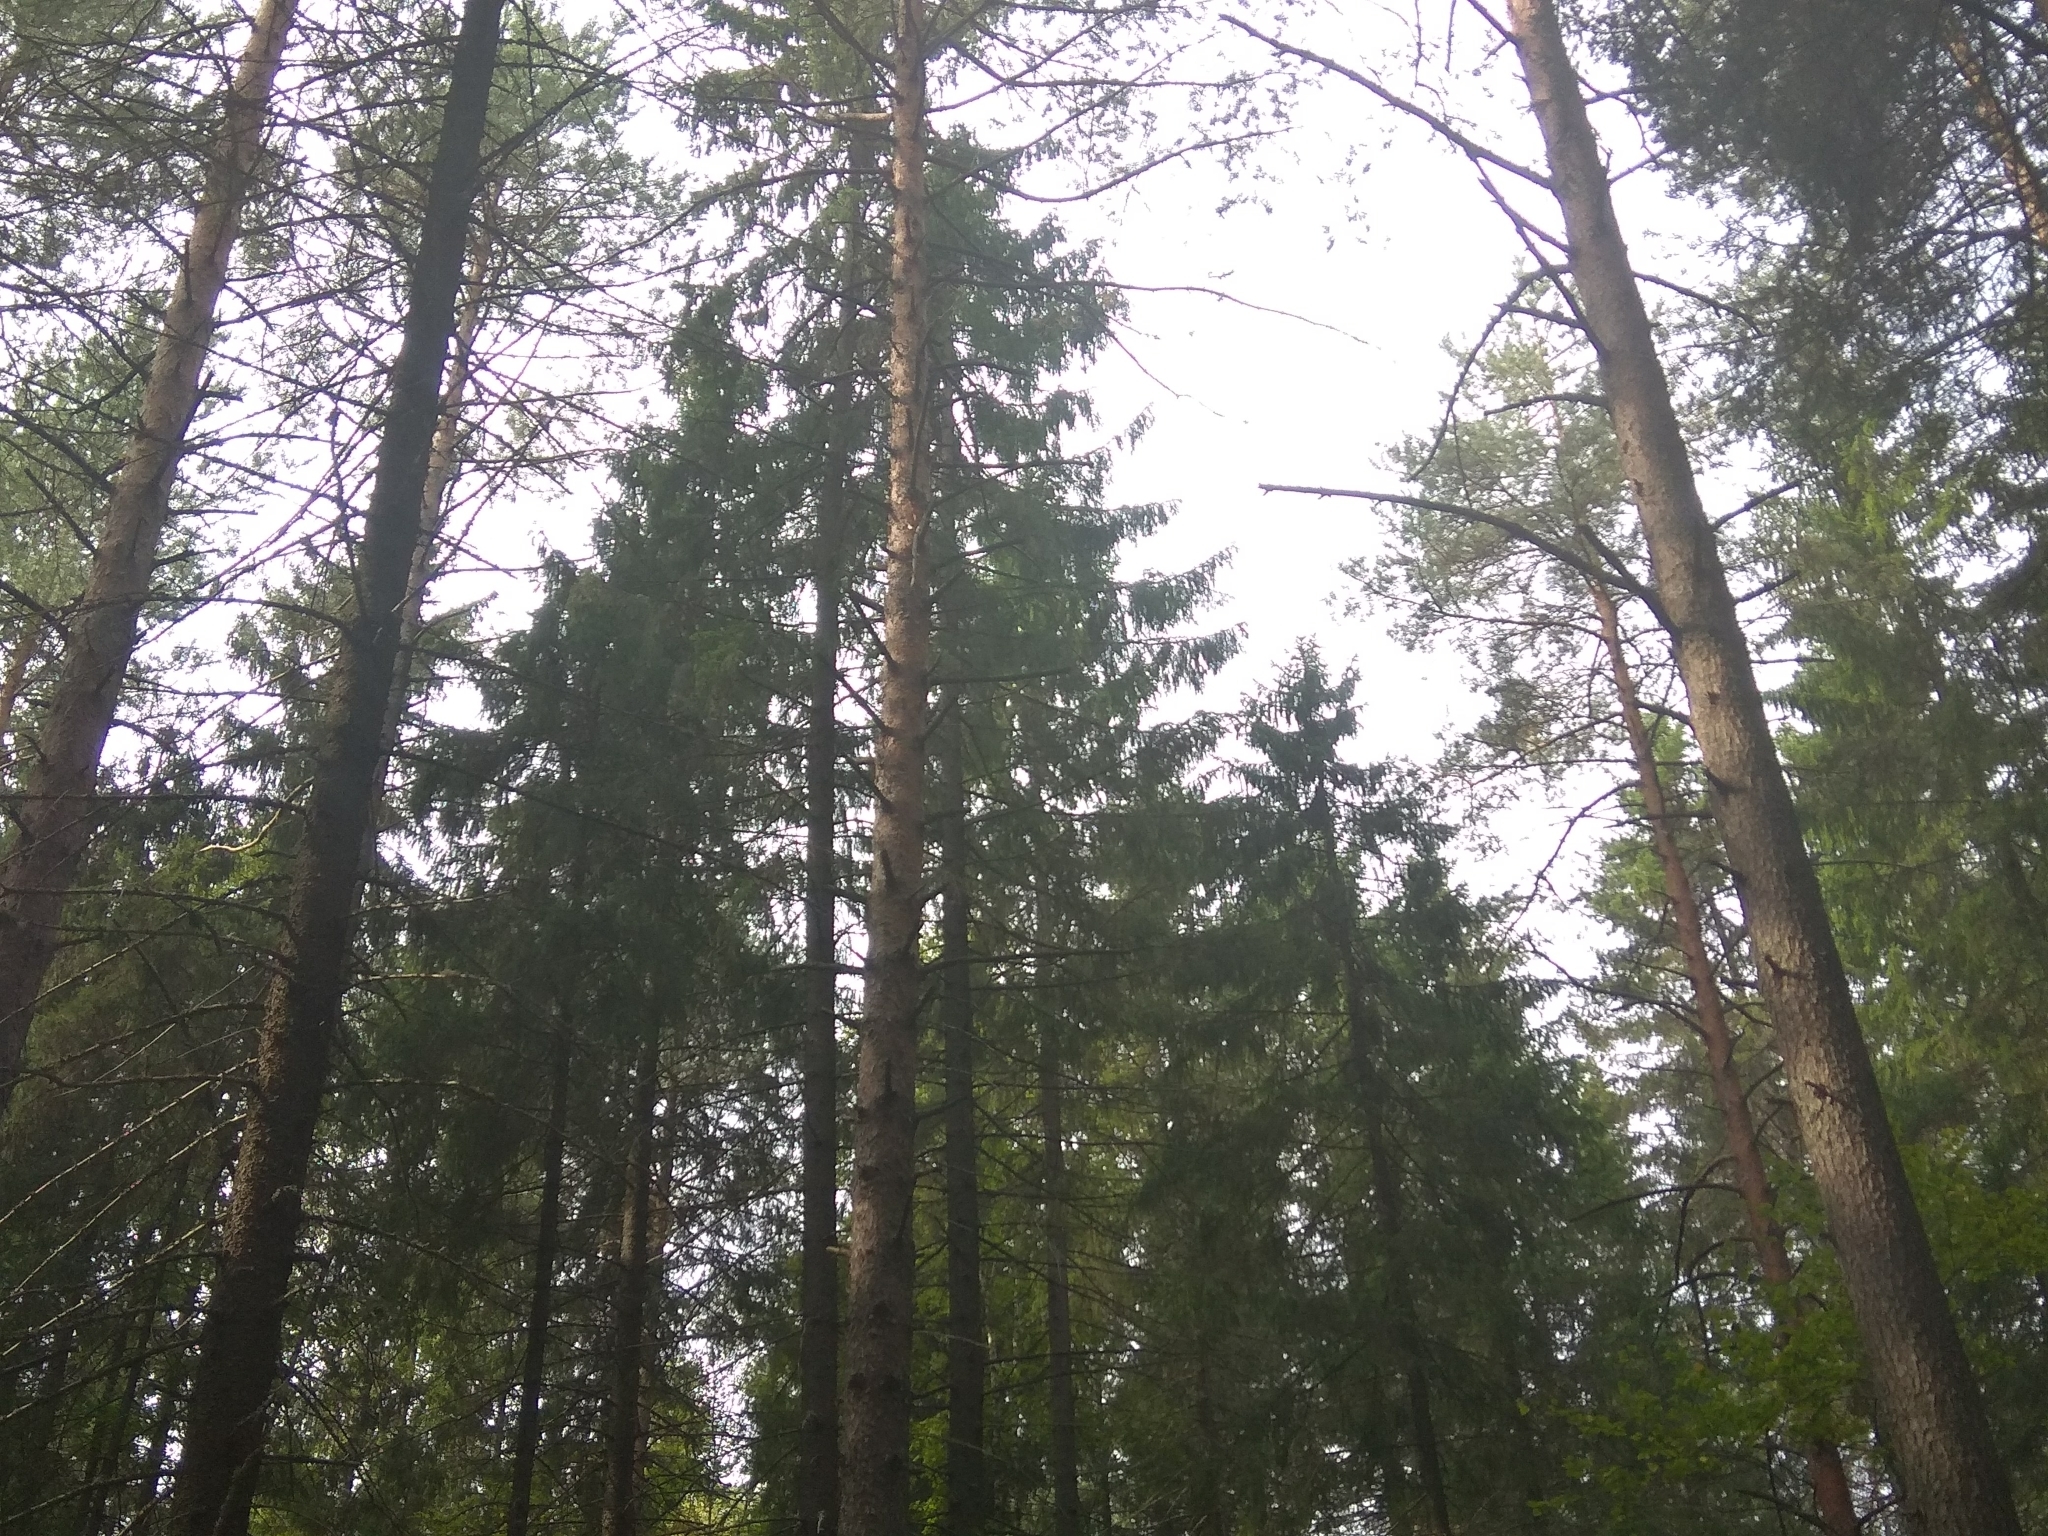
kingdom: Plantae
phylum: Tracheophyta
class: Pinopsida
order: Pinales
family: Pinaceae
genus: Picea
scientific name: Picea abies
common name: Norway spruce
